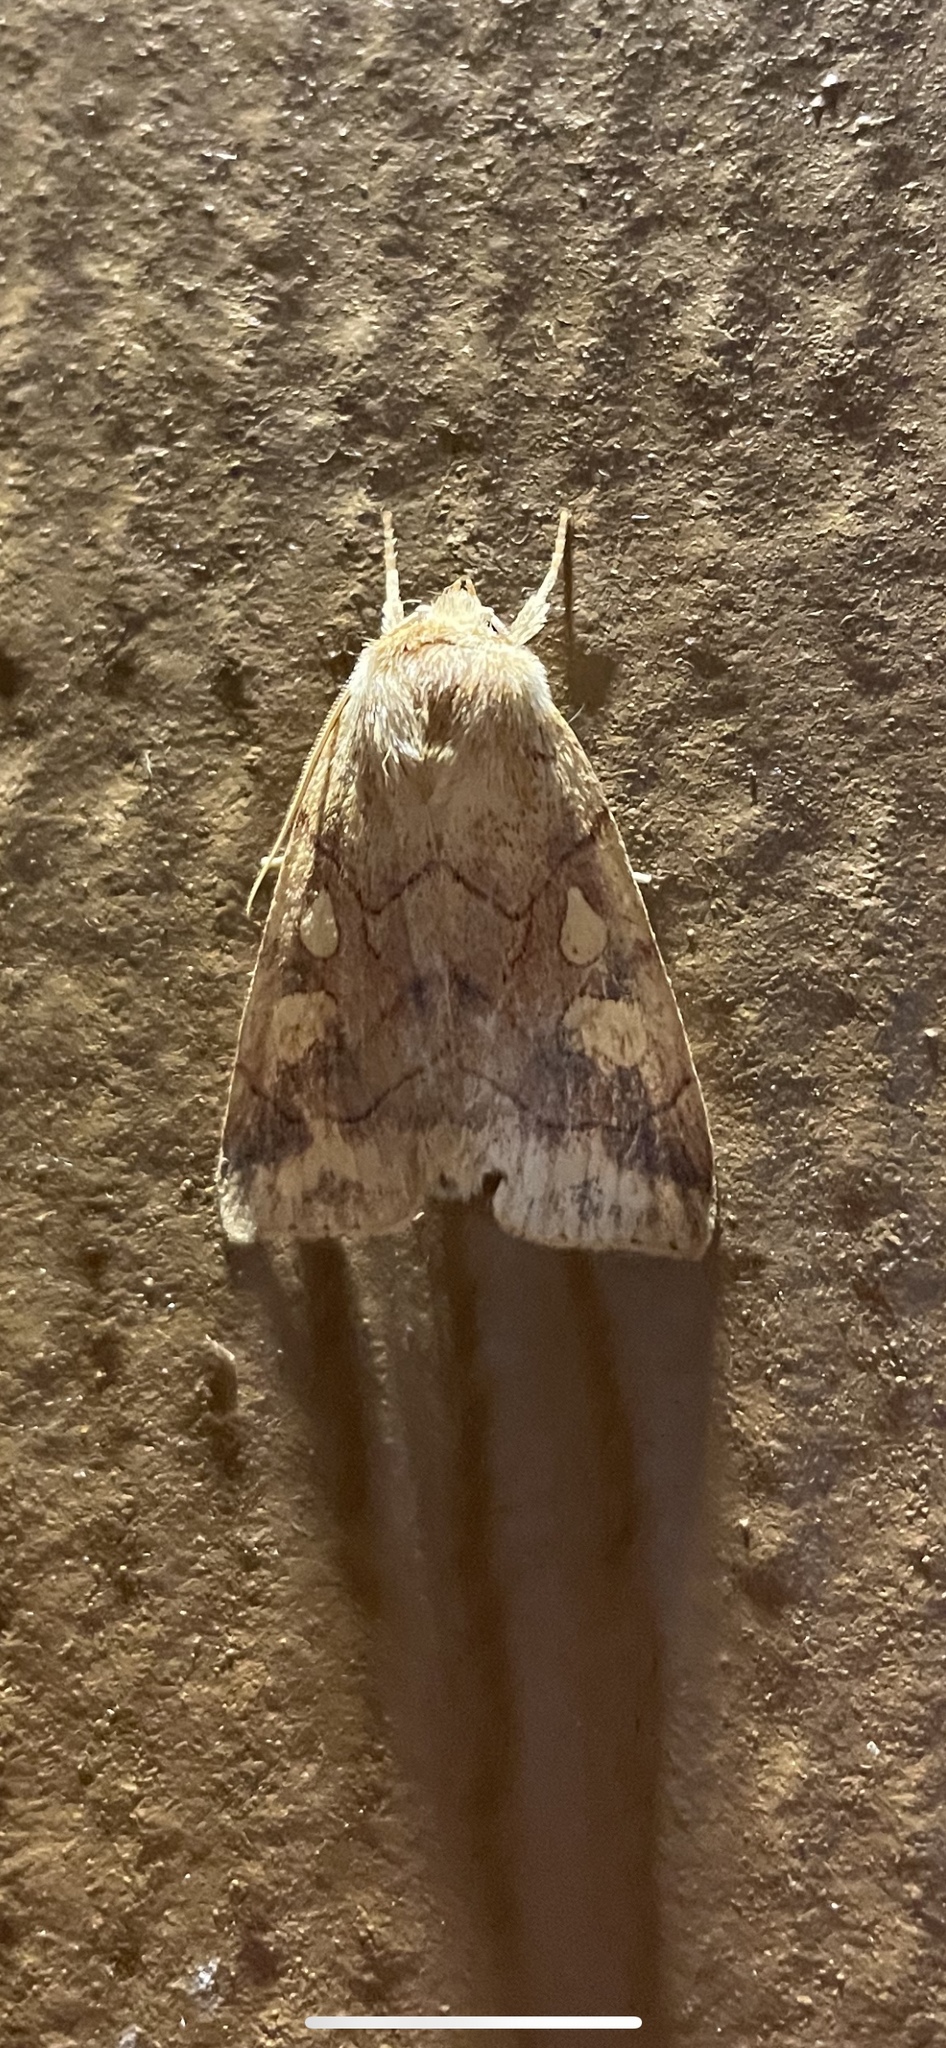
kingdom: Animalia
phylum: Arthropoda
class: Insecta
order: Lepidoptera
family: Noctuidae
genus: Enargia
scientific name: Enargia decolor
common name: Aspen twoleaf tier moth
